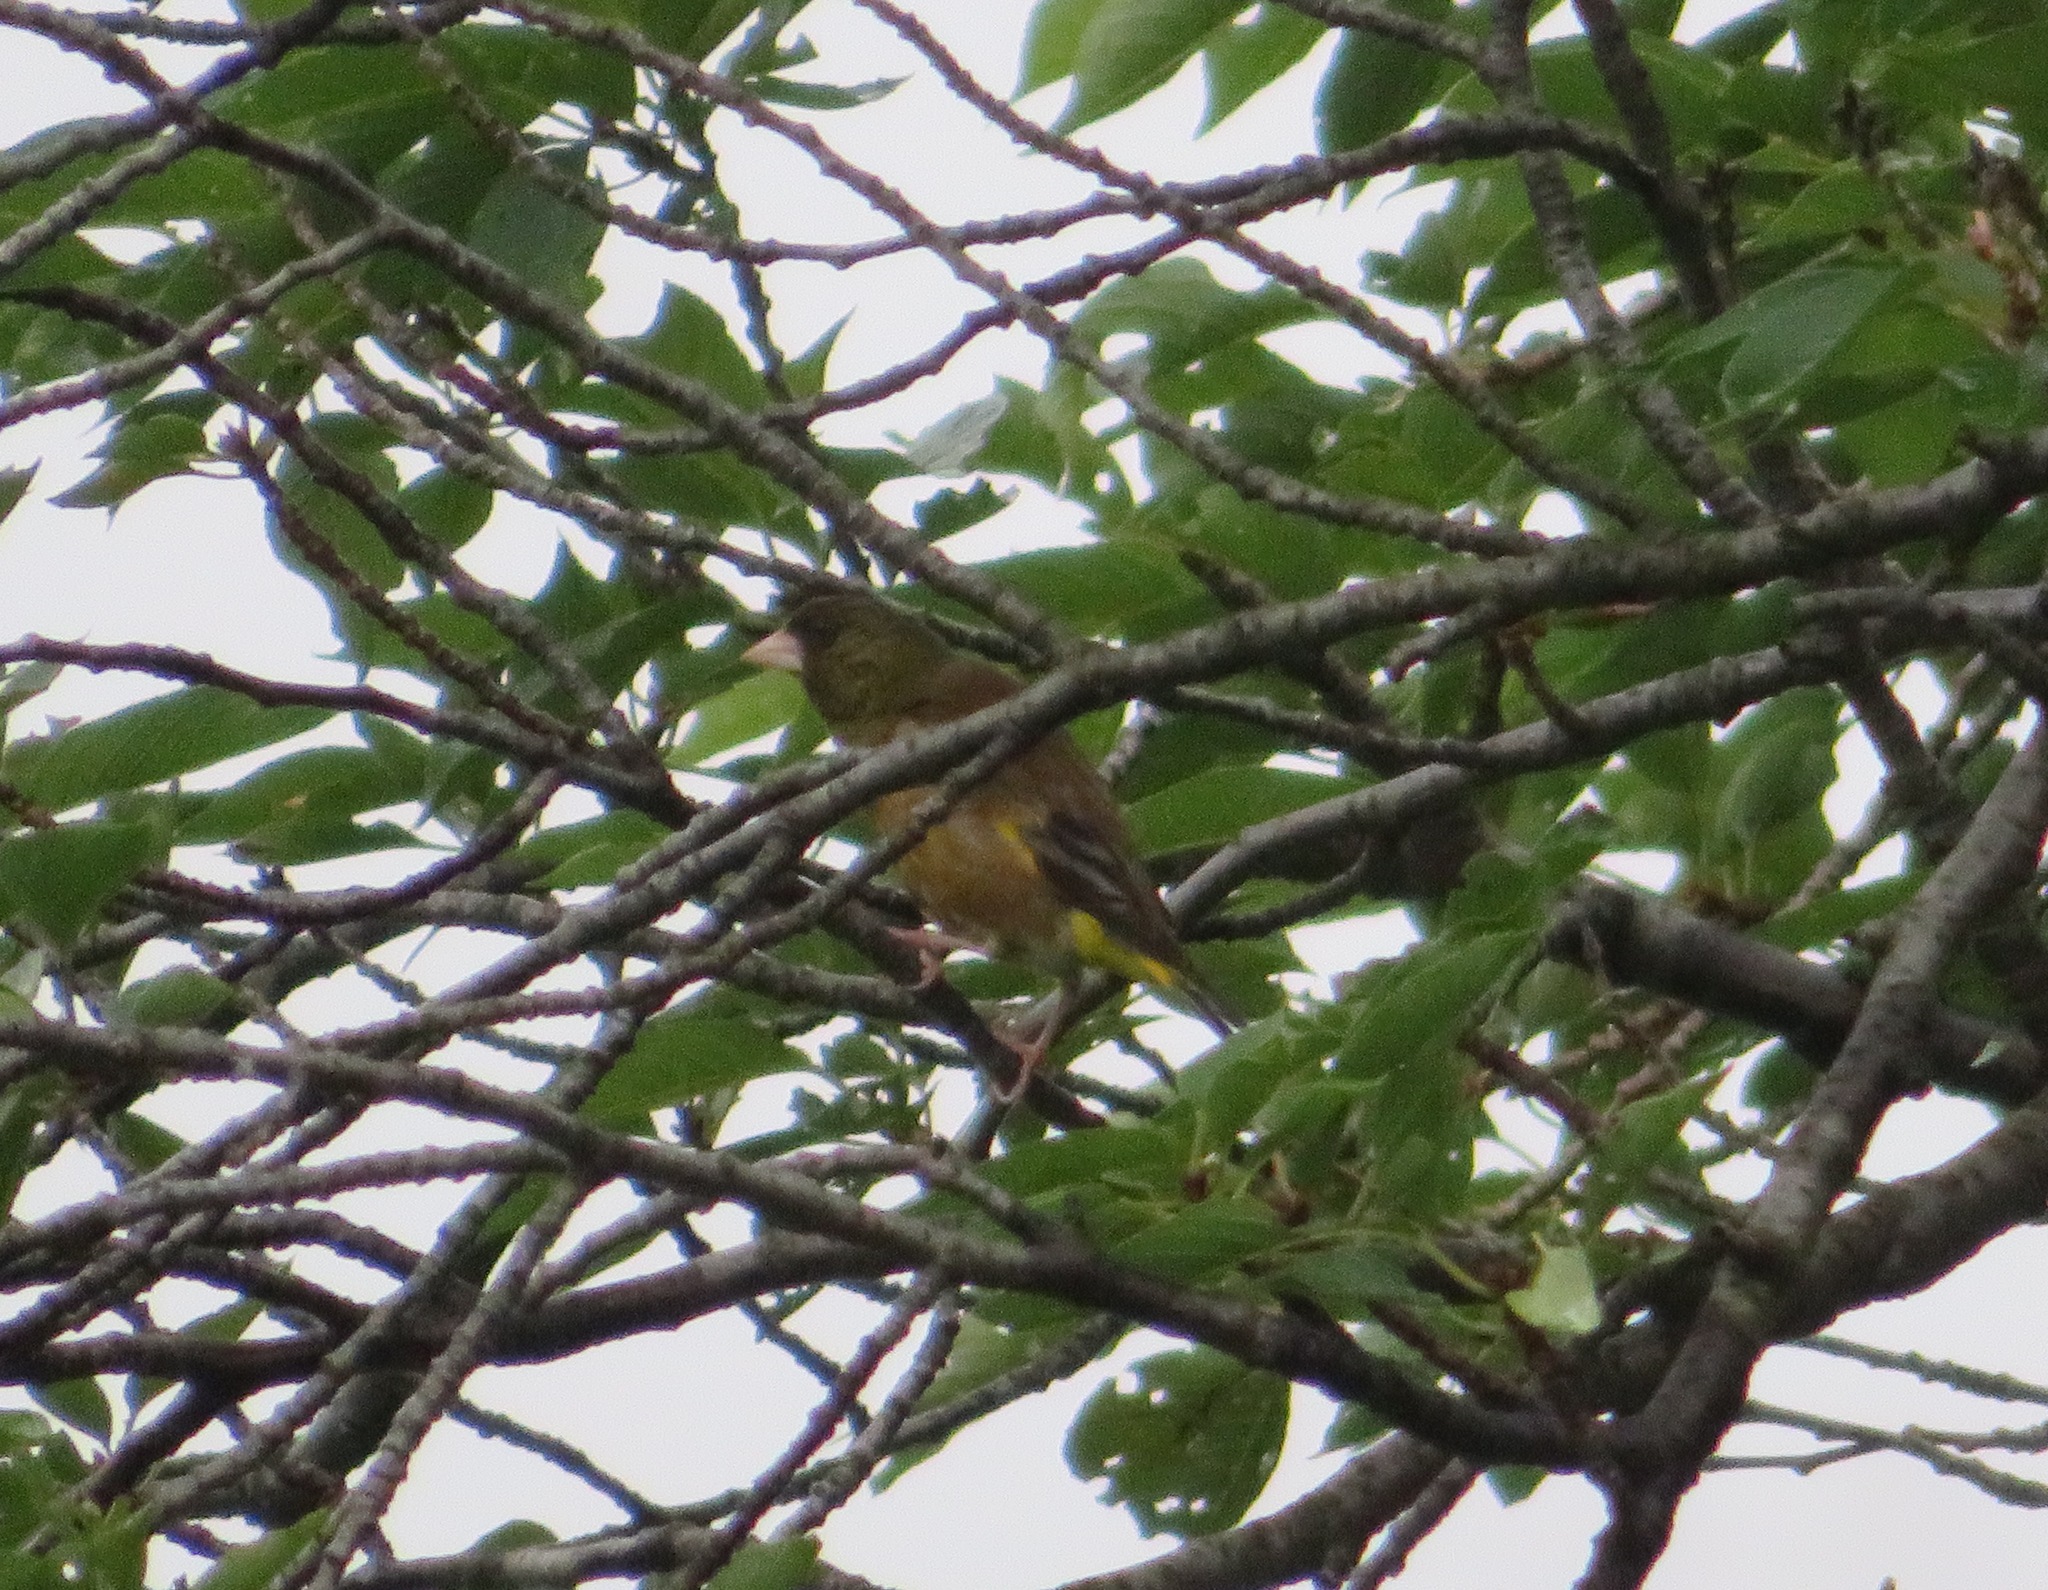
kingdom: Plantae
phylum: Tracheophyta
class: Liliopsida
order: Poales
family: Poaceae
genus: Chloris
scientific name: Chloris sinica
